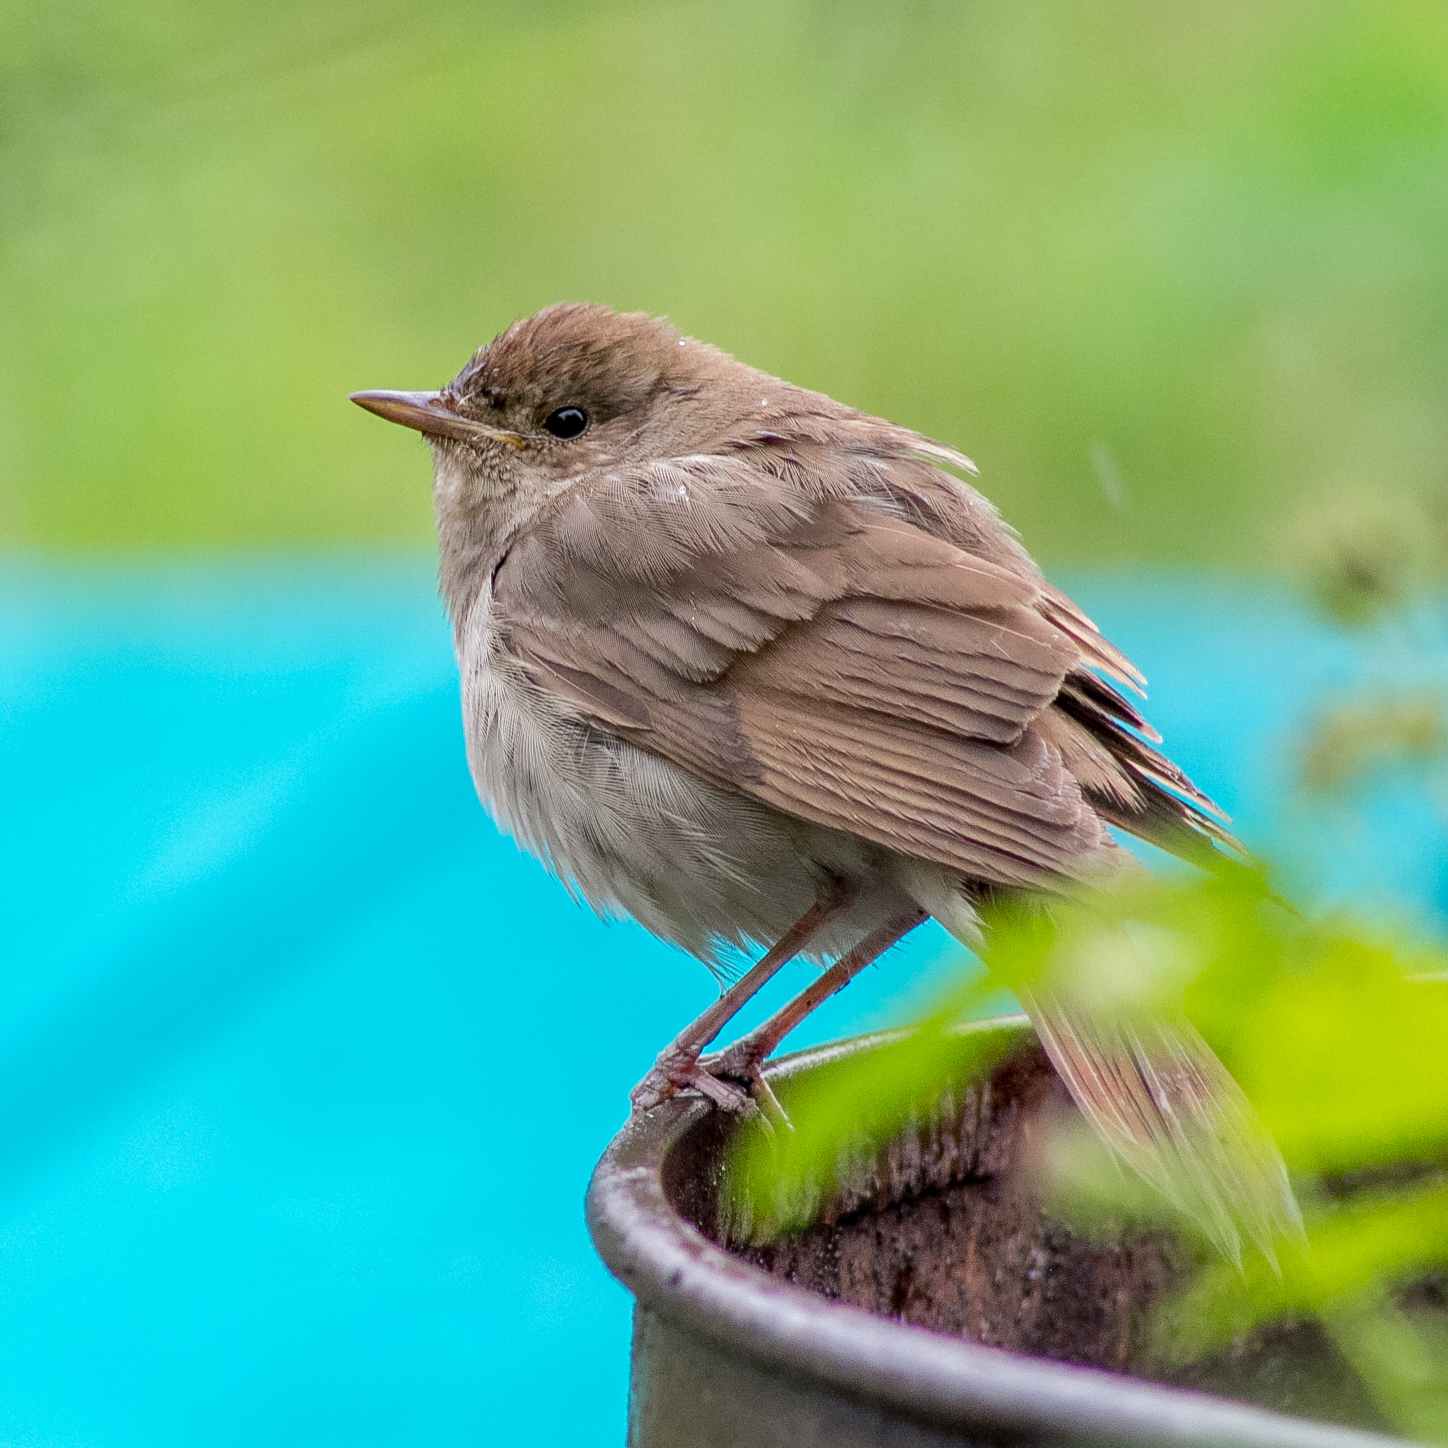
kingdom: Animalia
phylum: Chordata
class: Aves
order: Passeriformes
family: Muscicapidae
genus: Luscinia
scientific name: Luscinia luscinia
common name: Thrush nightingale
